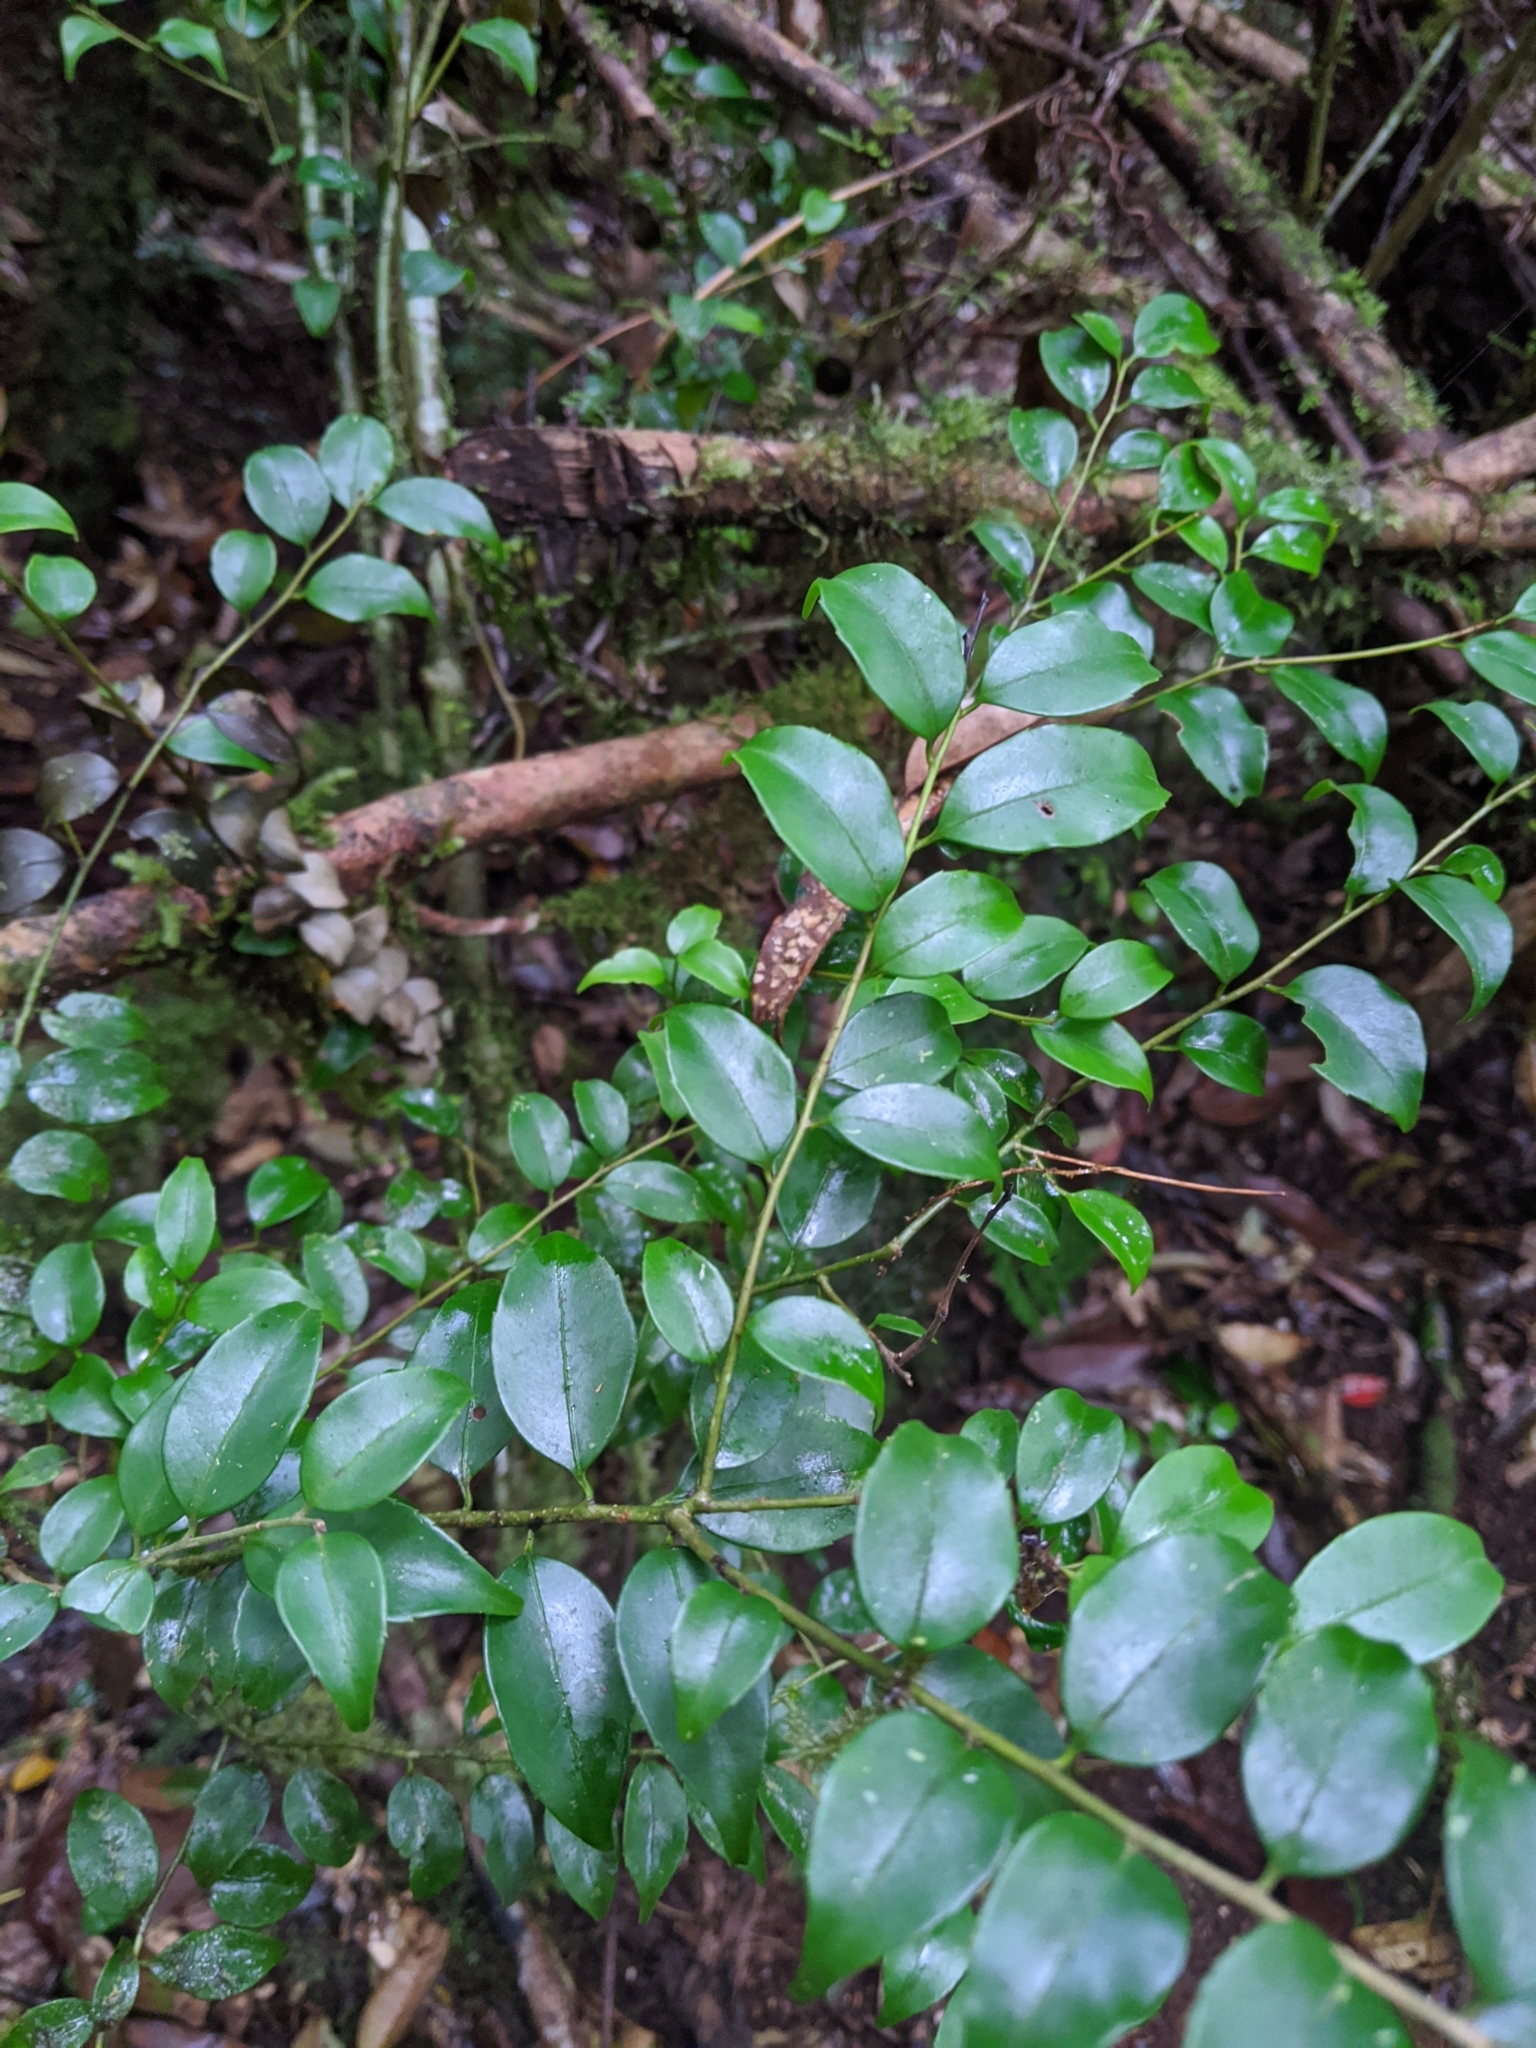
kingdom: Plantae
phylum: Tracheophyta
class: Magnoliopsida
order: Ericales
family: Symplocaceae
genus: Symplocos
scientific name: Symplocos anomala
